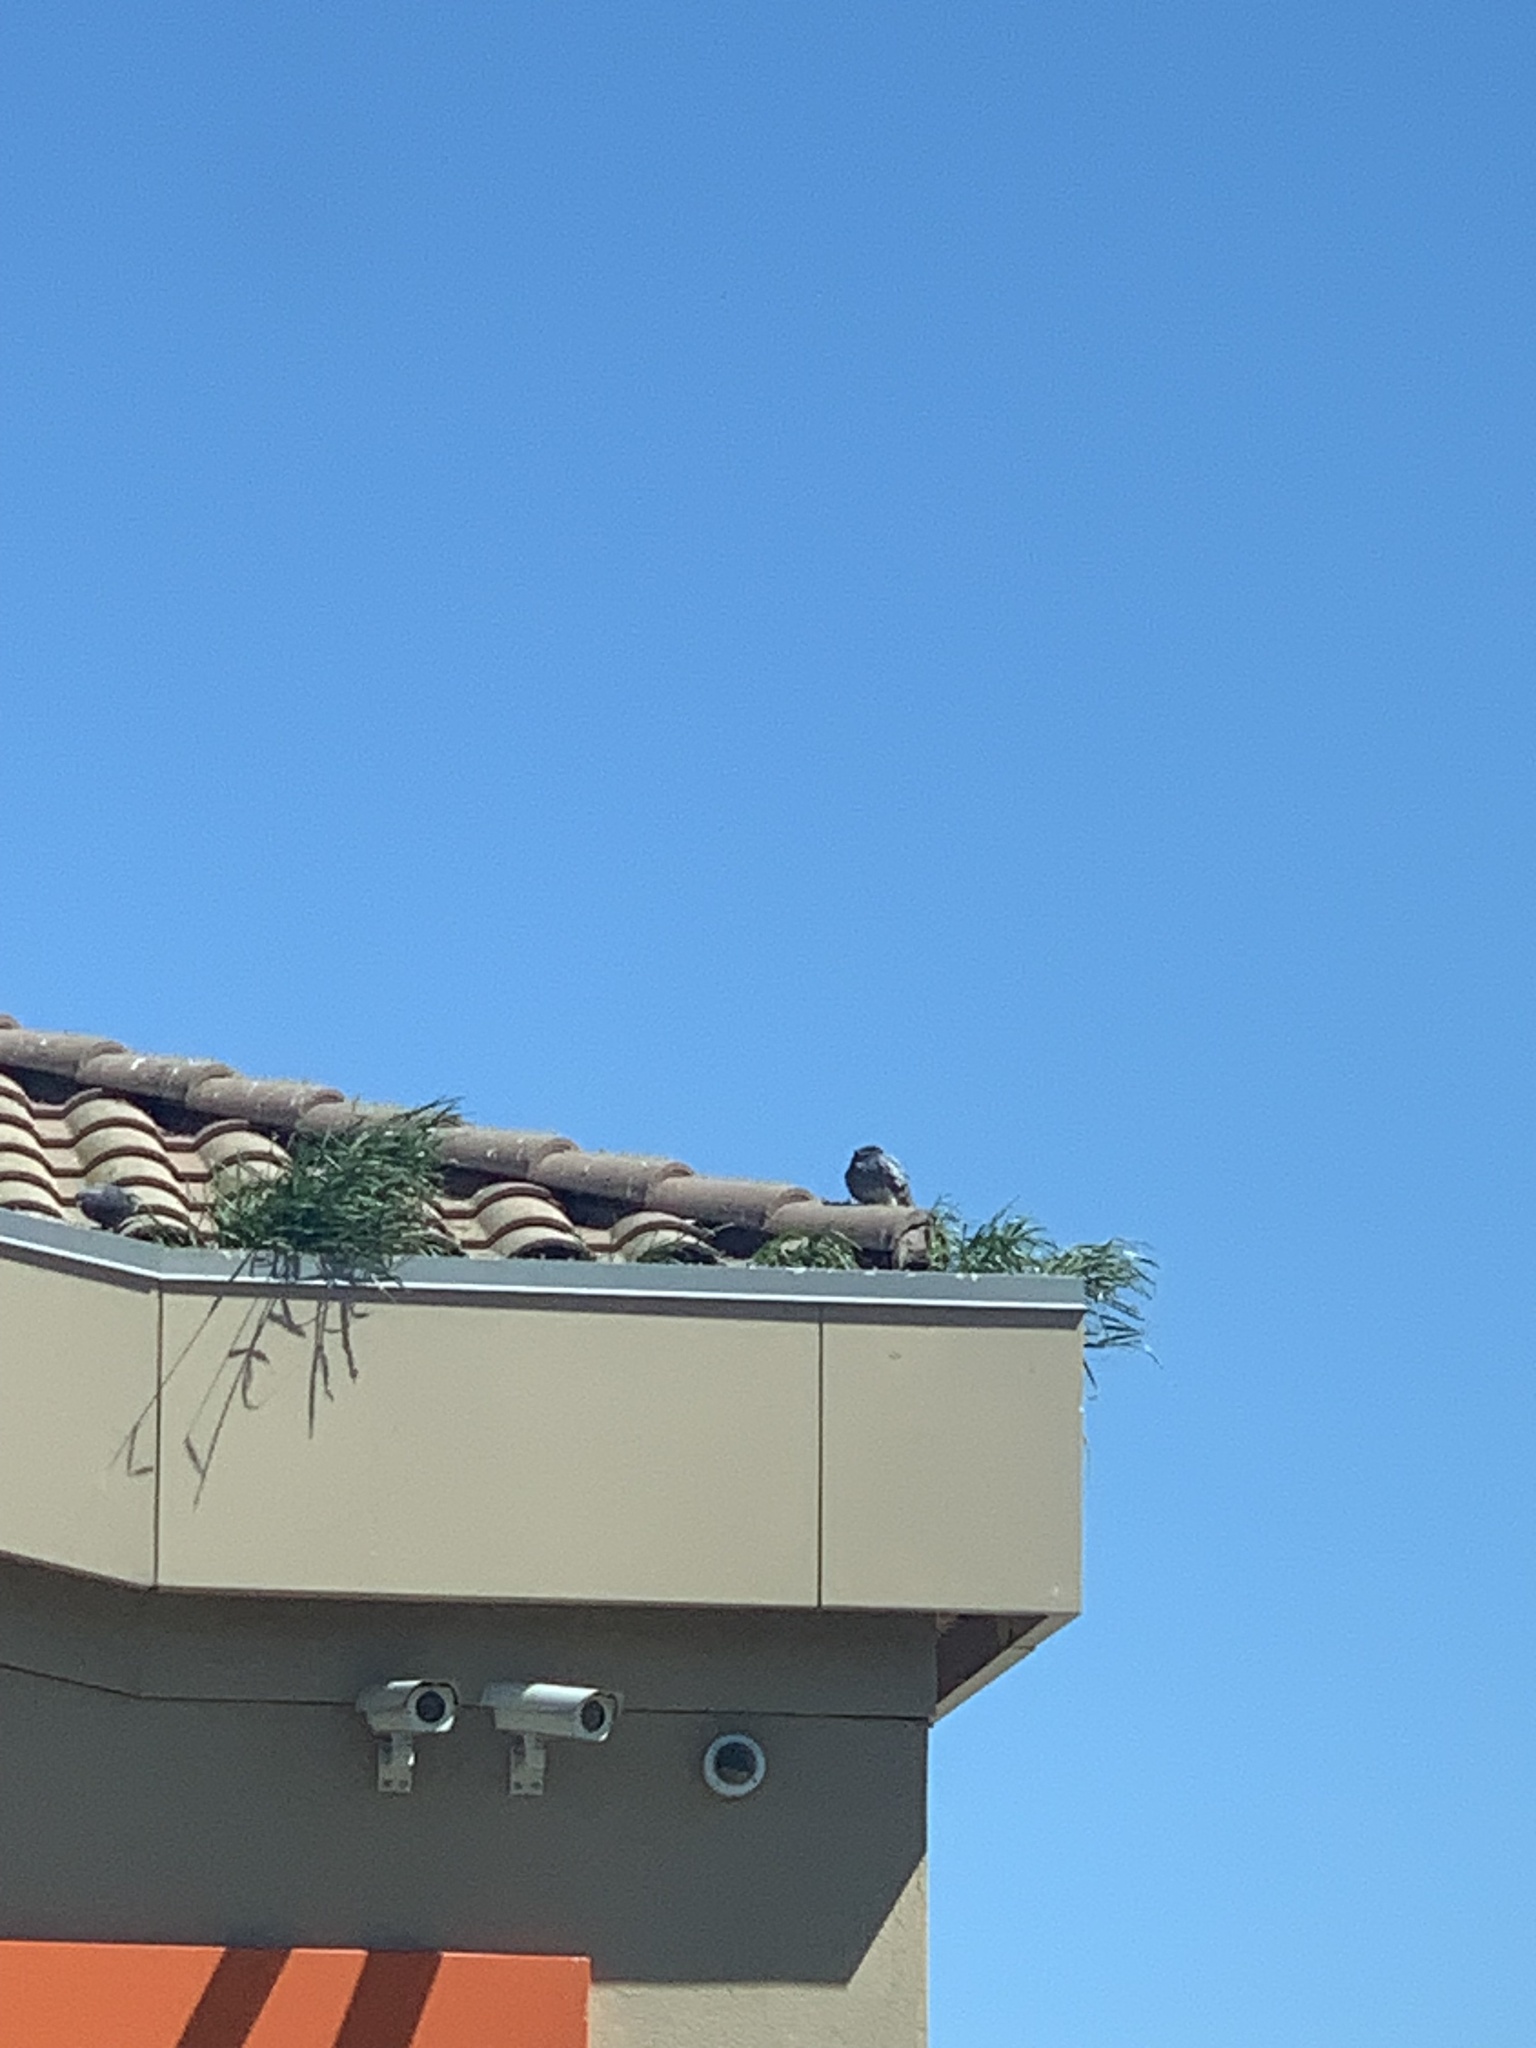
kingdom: Animalia
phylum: Chordata
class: Aves
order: Columbiformes
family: Columbidae
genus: Columba
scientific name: Columba livia
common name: Rock pigeon
